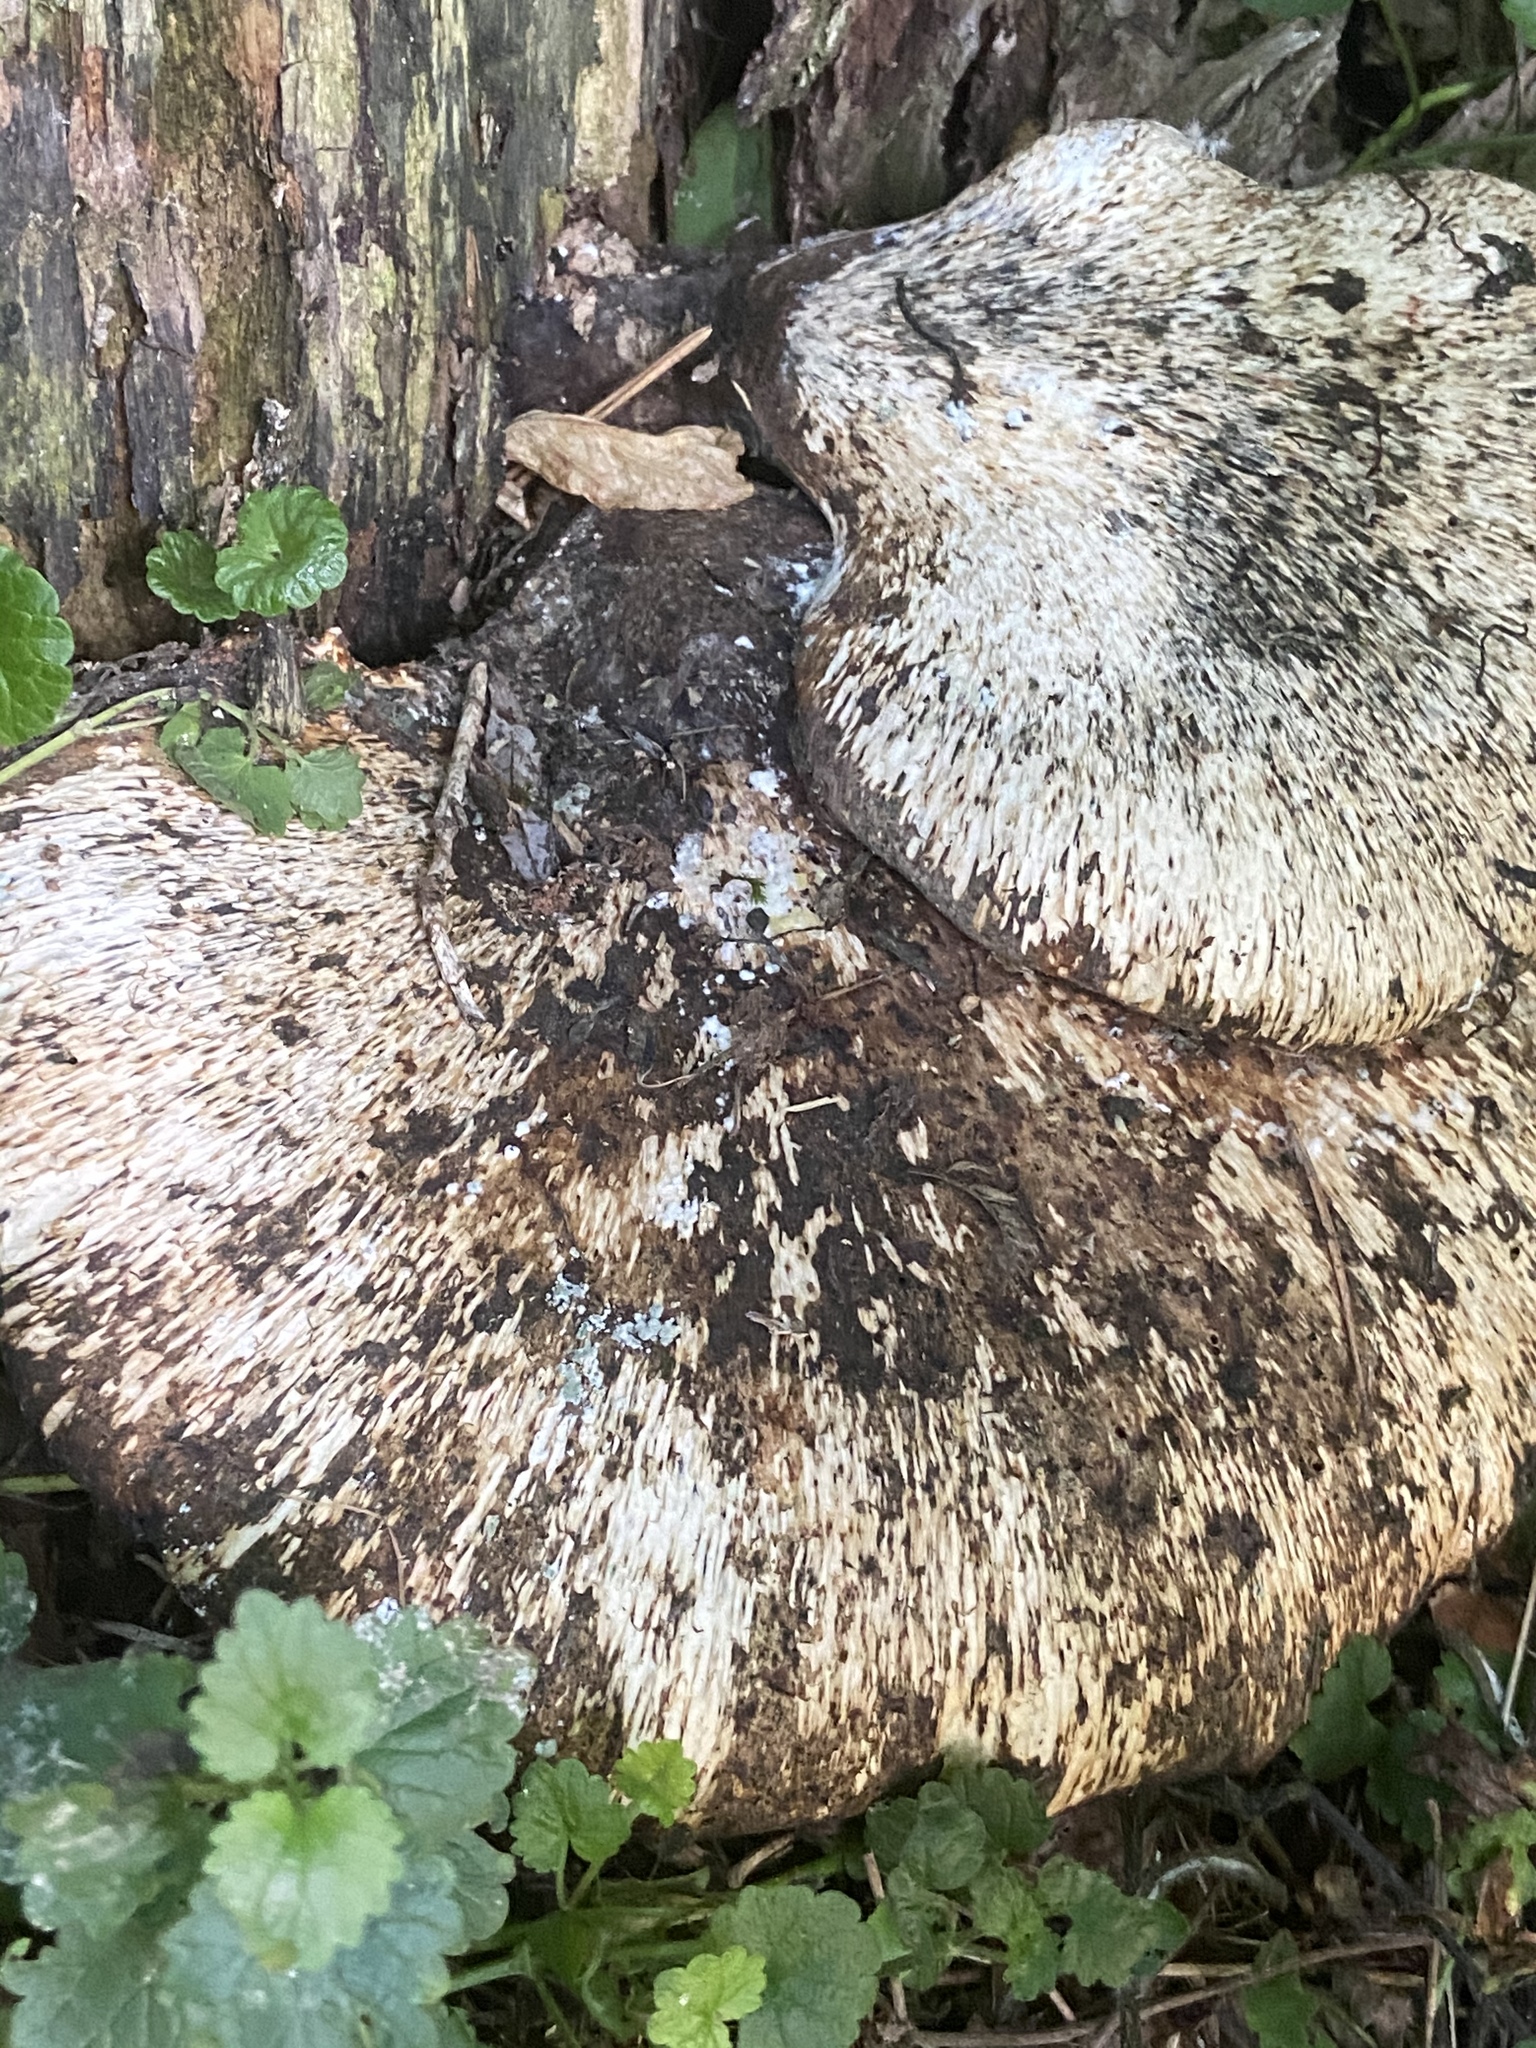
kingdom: Fungi
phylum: Basidiomycota
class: Agaricomycetes
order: Polyporales
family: Polyporaceae
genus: Cerioporus
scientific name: Cerioporus squamosus
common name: Dryad's saddle
